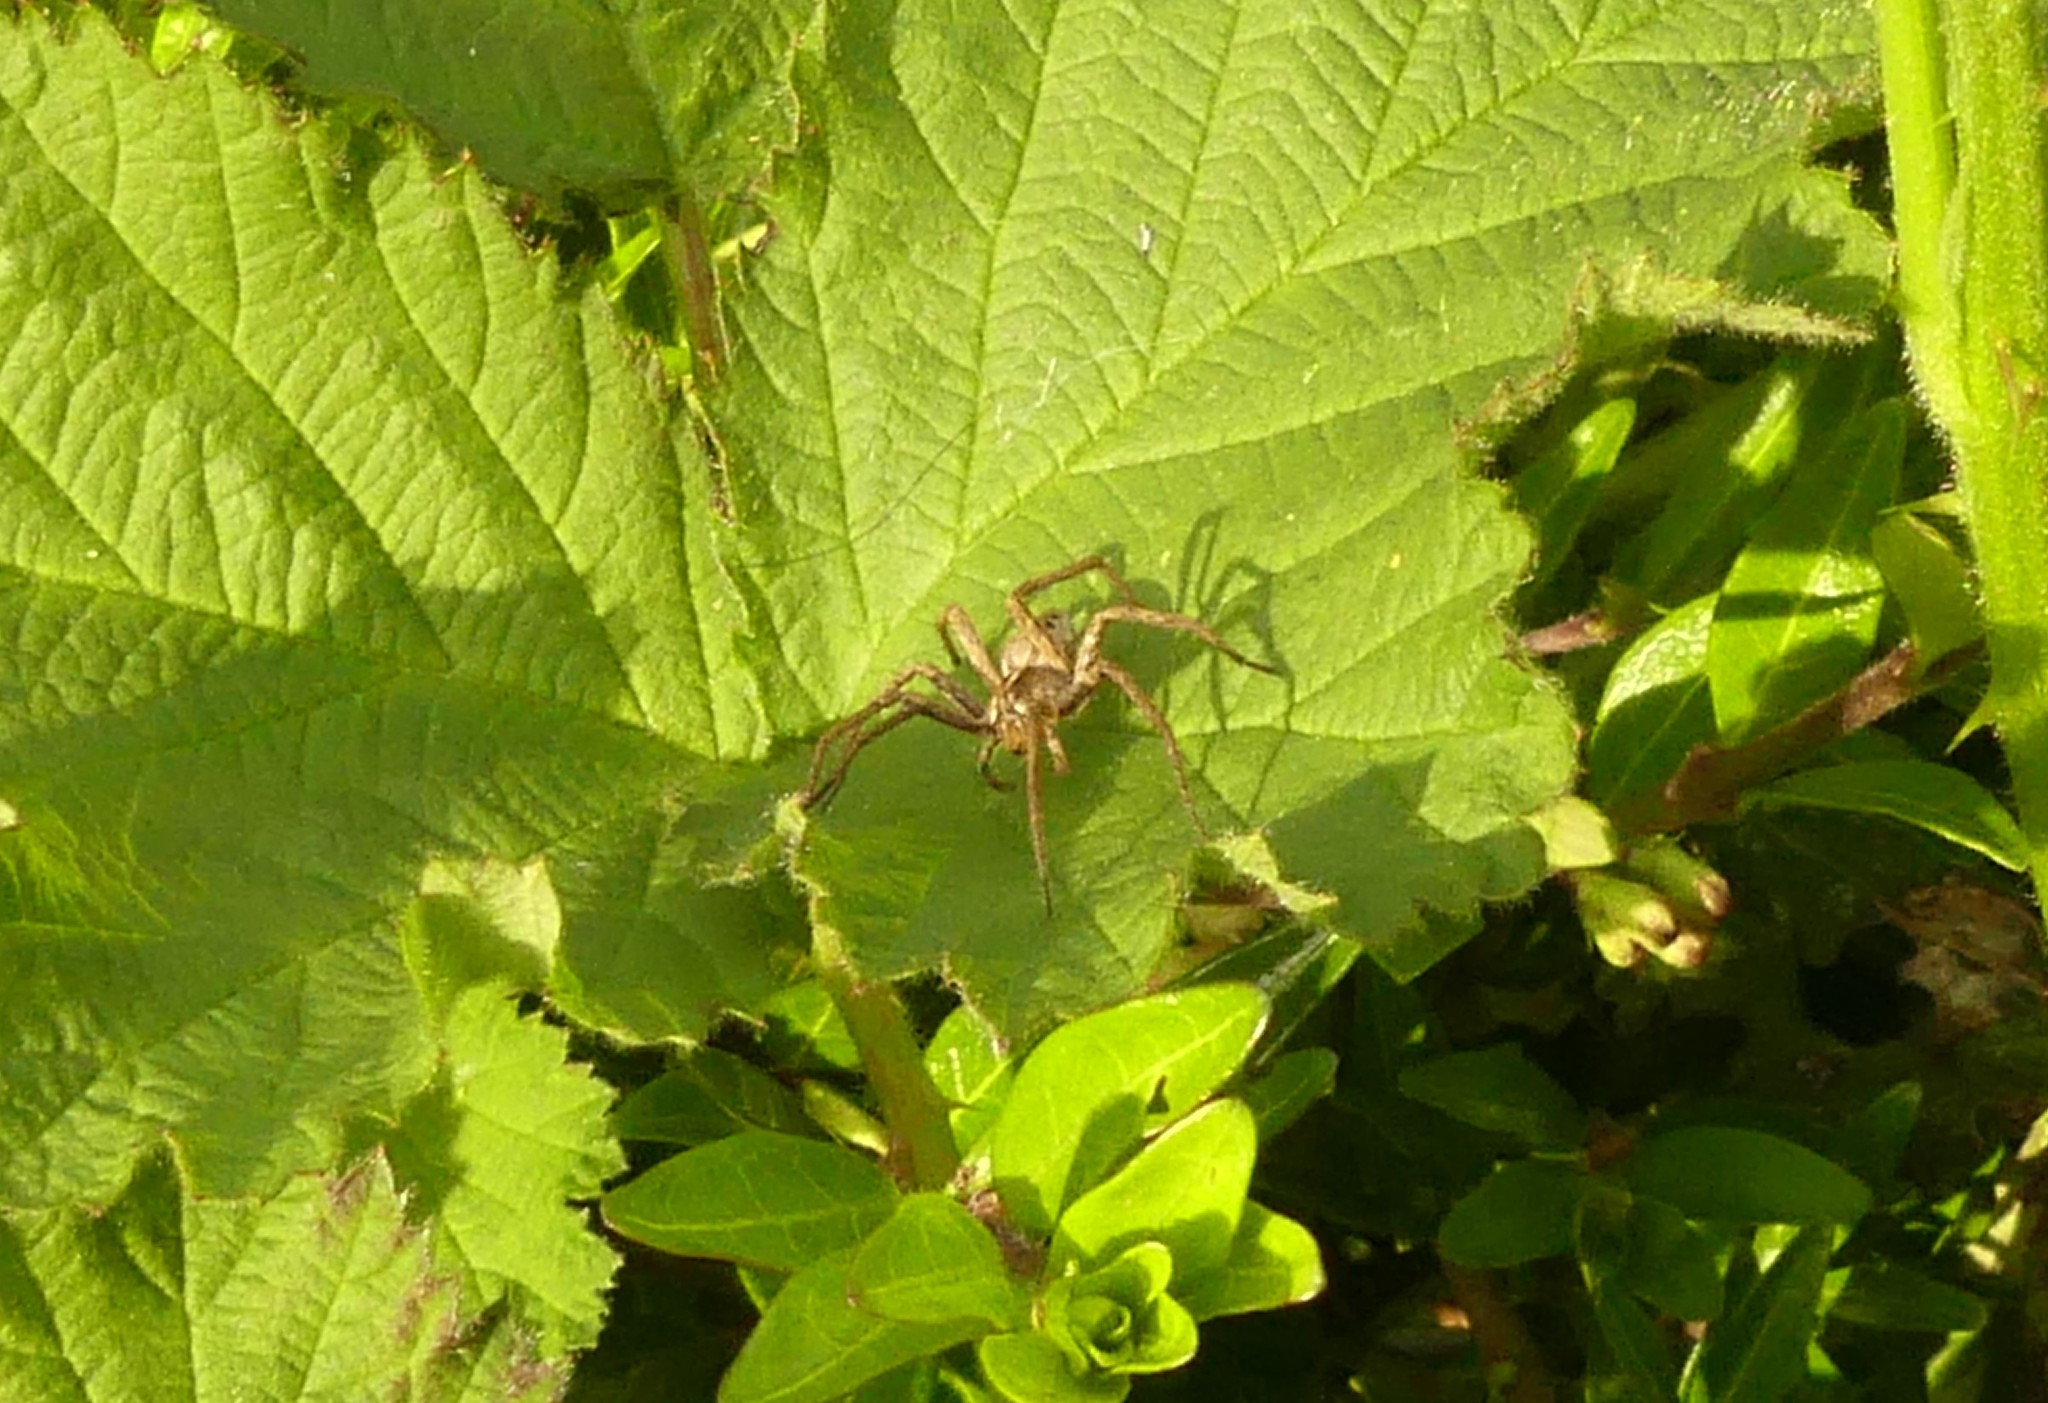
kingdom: Animalia
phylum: Arthropoda
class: Arachnida
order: Araneae
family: Pisauridae
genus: Pisaura
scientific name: Pisaura mirabilis
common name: Tent spider
